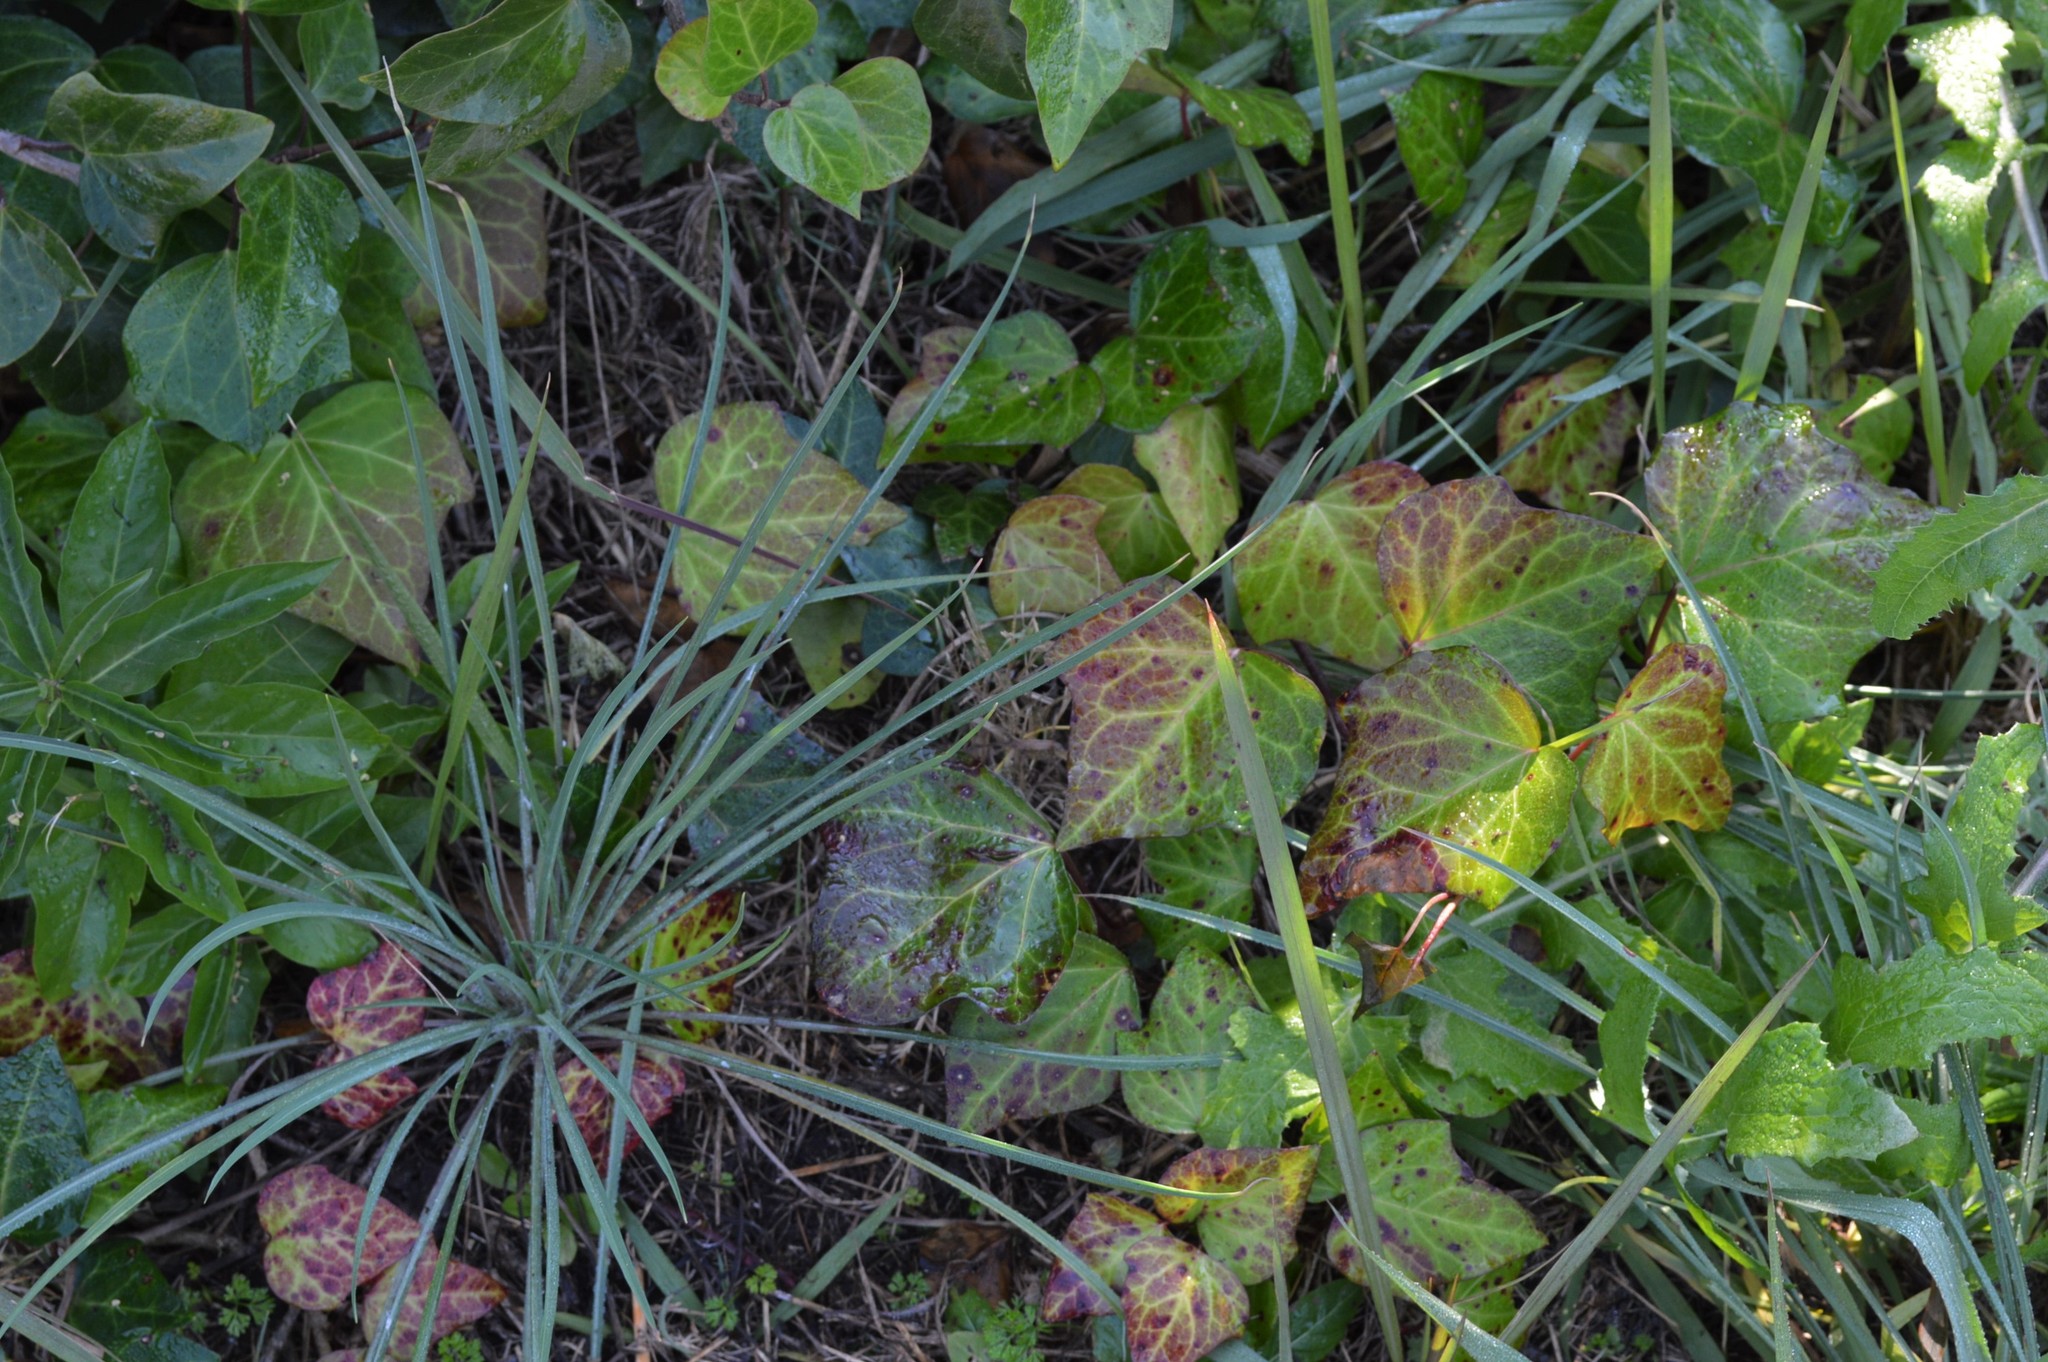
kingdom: Plantae
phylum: Tracheophyta
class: Magnoliopsida
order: Apiales
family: Araliaceae
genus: Hedera
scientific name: Hedera canariensis
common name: Madeira ivy
